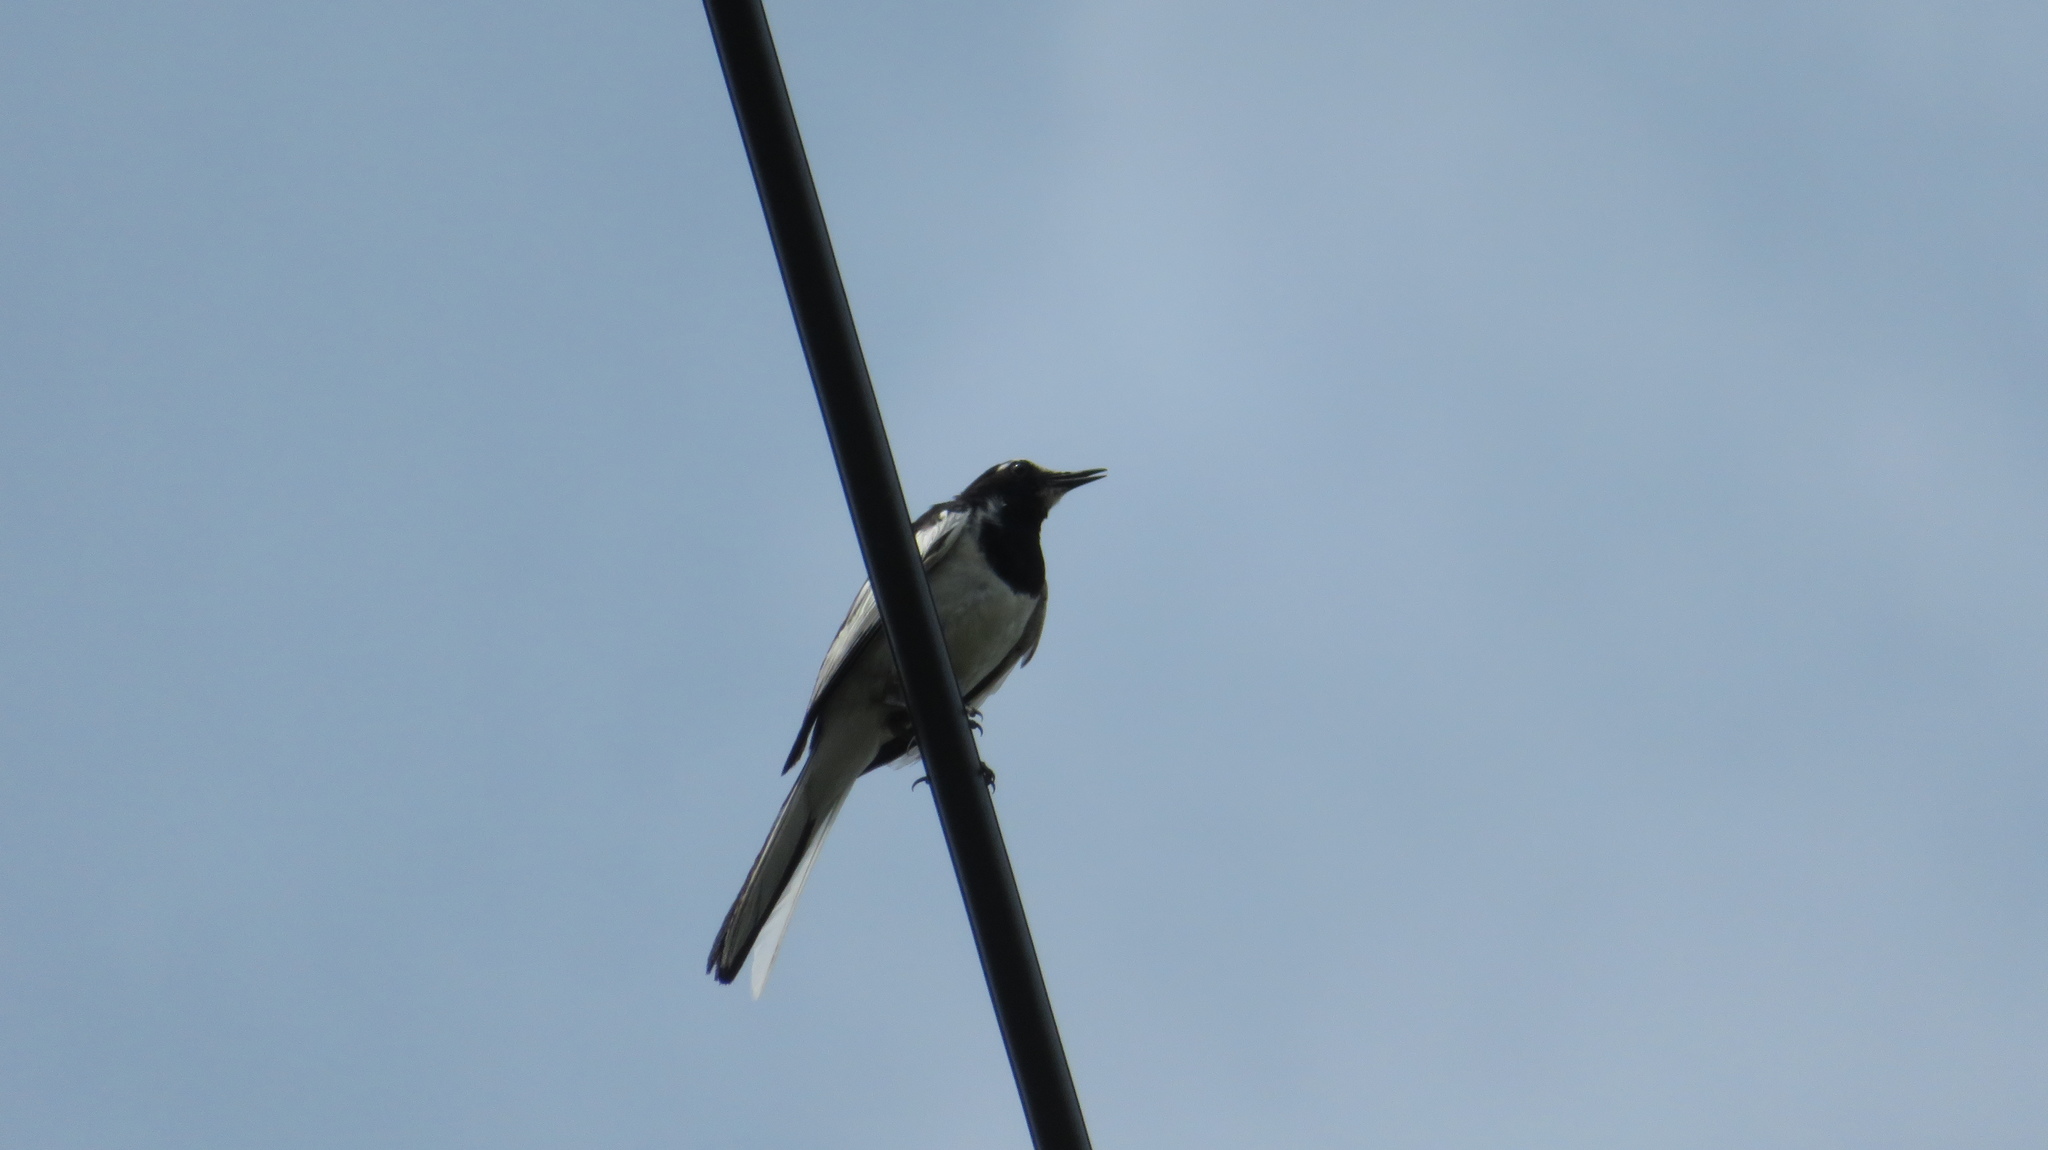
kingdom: Animalia
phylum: Chordata
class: Aves
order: Passeriformes
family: Motacillidae
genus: Motacilla
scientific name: Motacilla grandis
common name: Japanese wagtail
